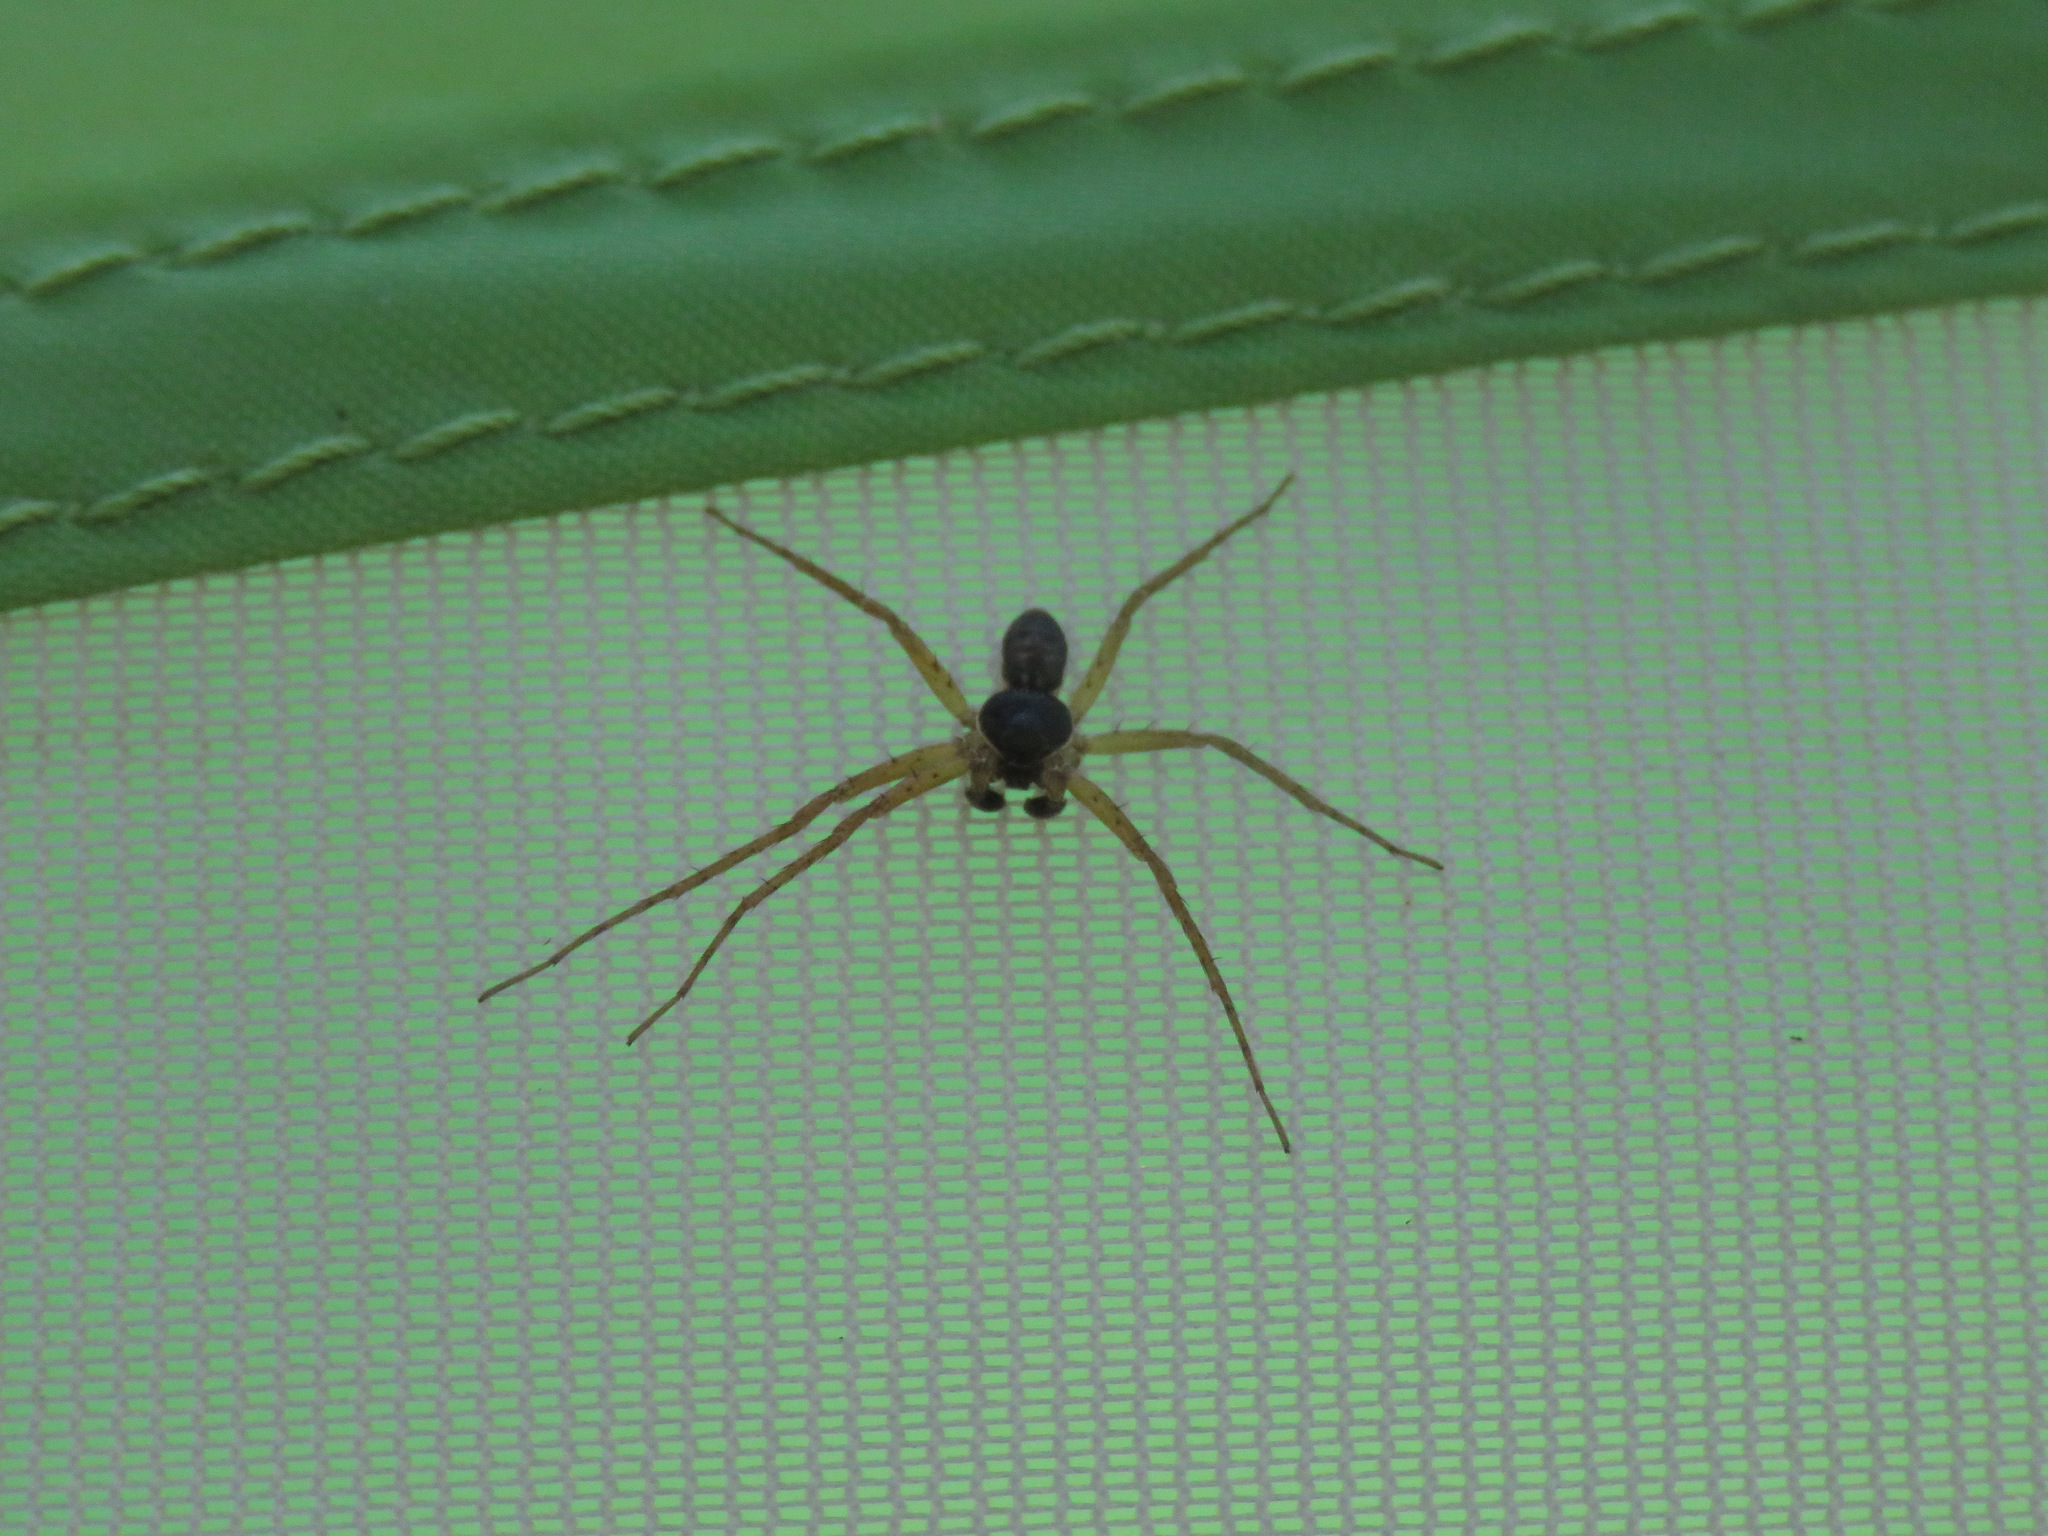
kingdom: Animalia
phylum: Arthropoda
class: Arachnida
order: Araneae
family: Philodromidae
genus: Philodromus
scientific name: Philodromus dispar
